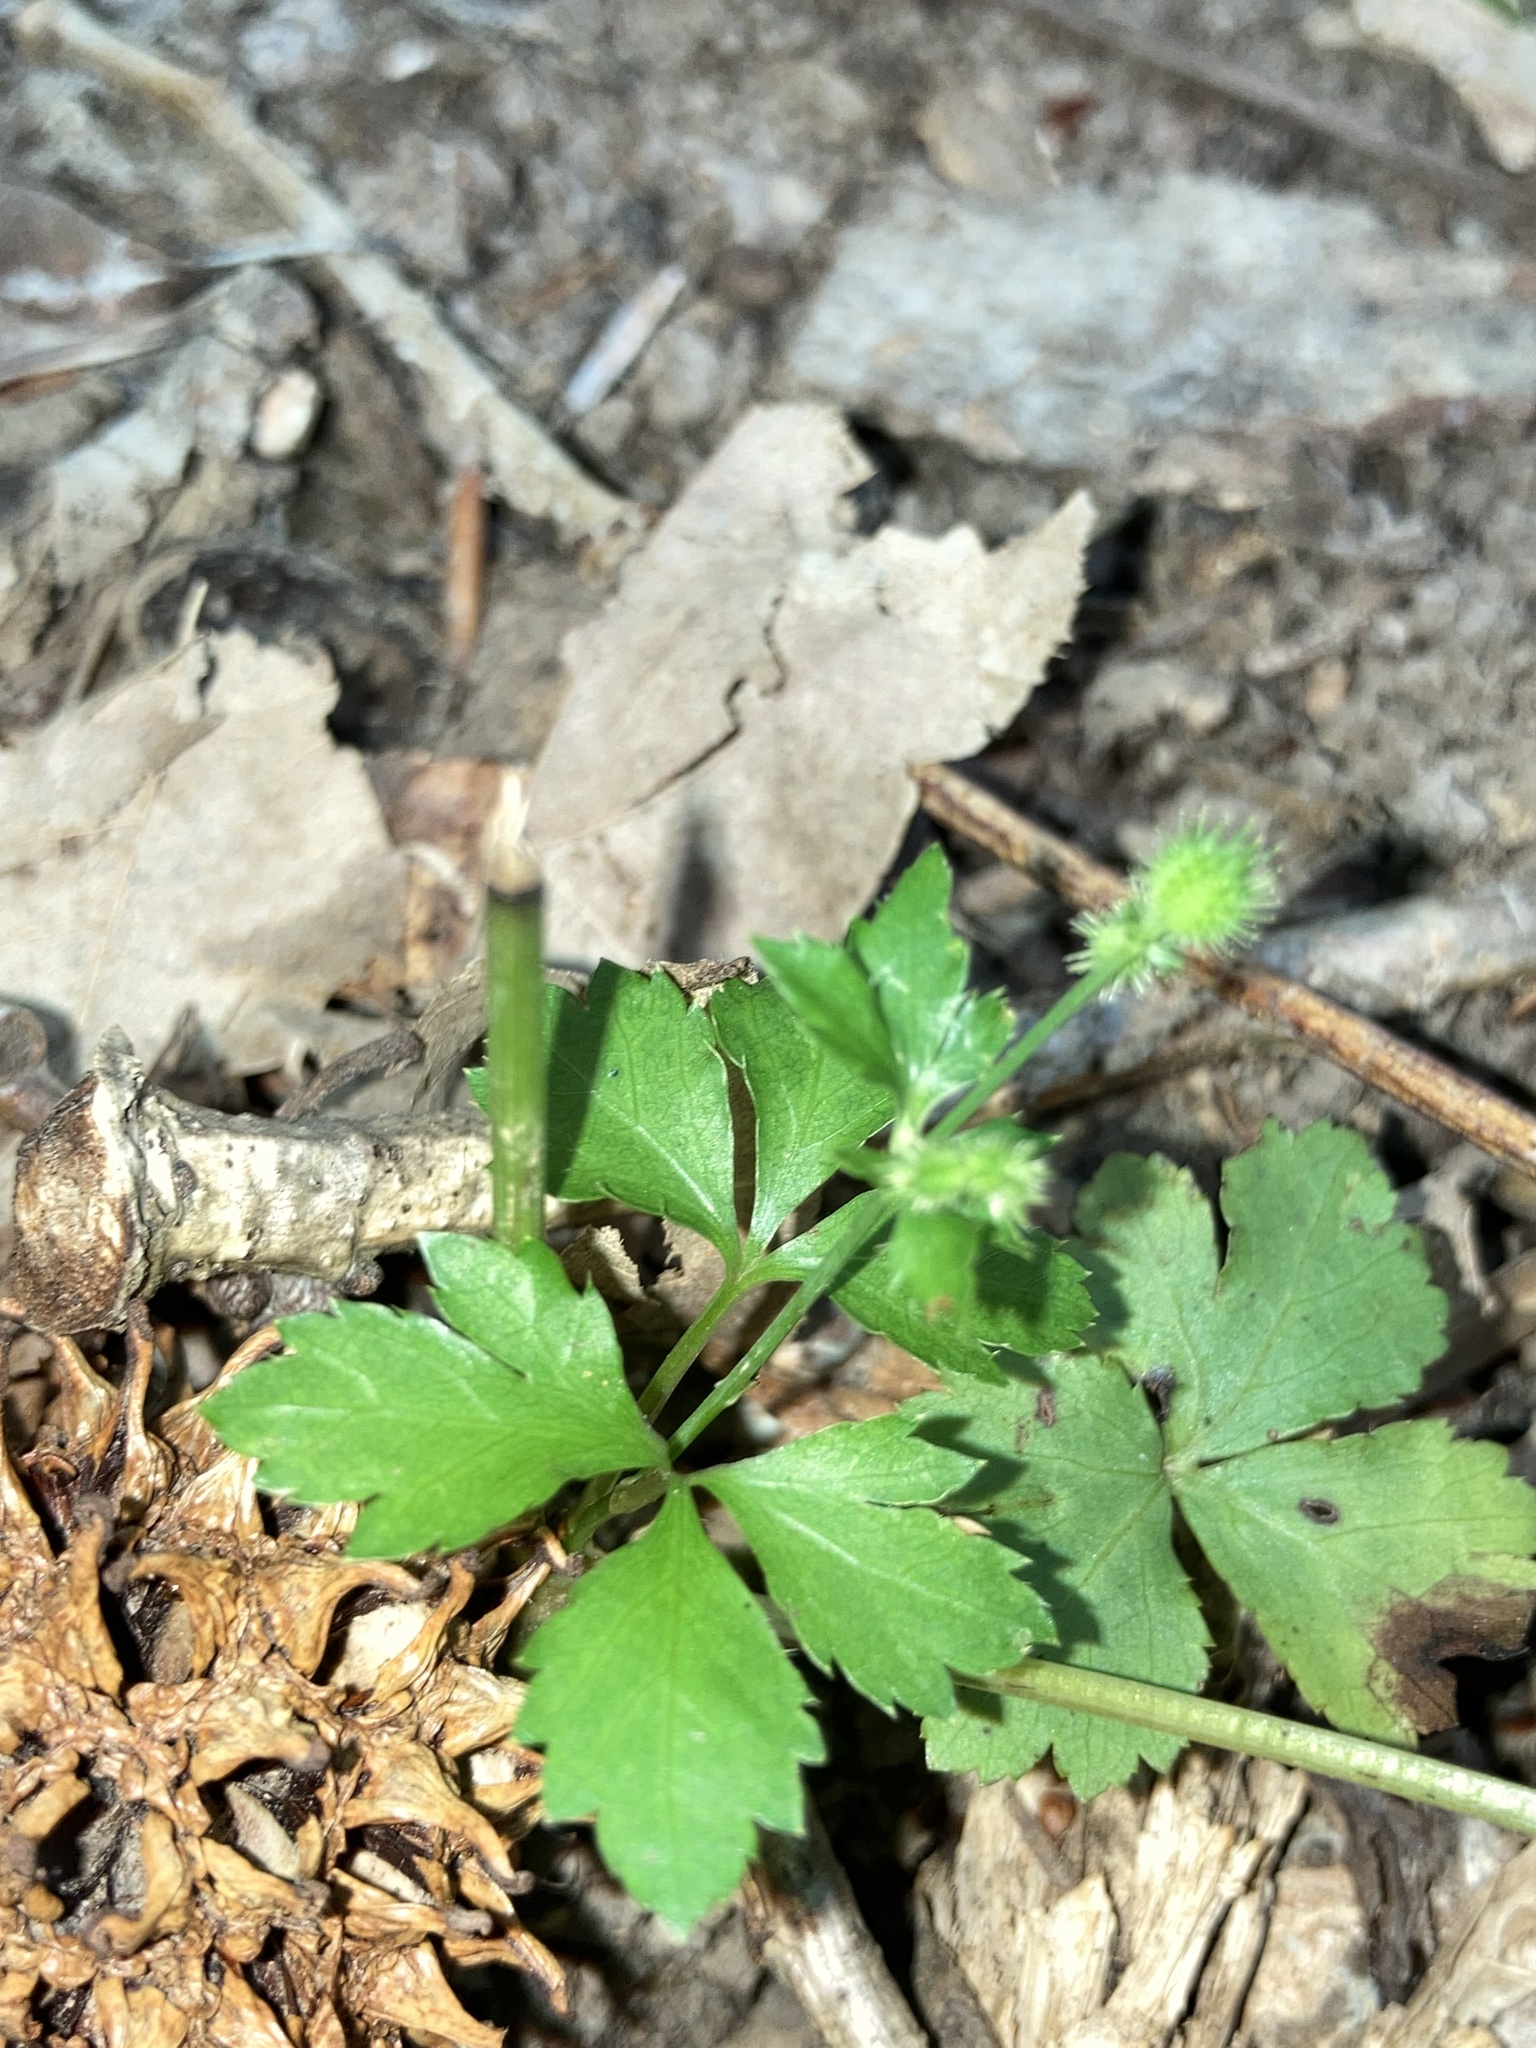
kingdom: Plantae
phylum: Tracheophyta
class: Magnoliopsida
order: Apiales
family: Apiaceae
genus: Sanicula
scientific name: Sanicula canadensis
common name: Canada sanicle
